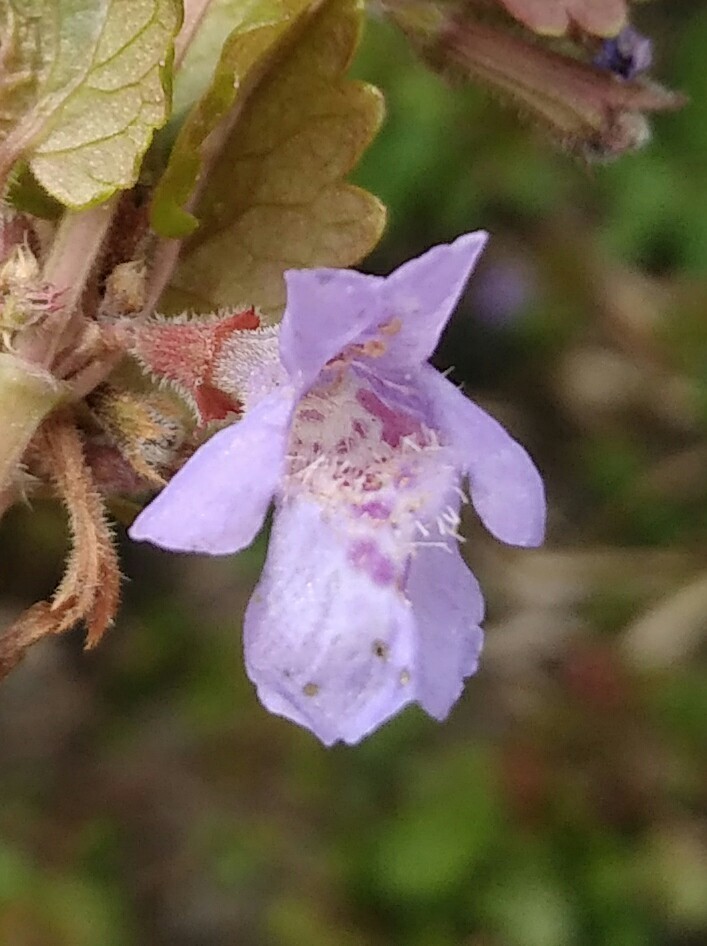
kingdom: Plantae
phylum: Tracheophyta
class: Magnoliopsida
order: Lamiales
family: Lamiaceae
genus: Glechoma
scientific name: Glechoma hederacea
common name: Ground ivy
